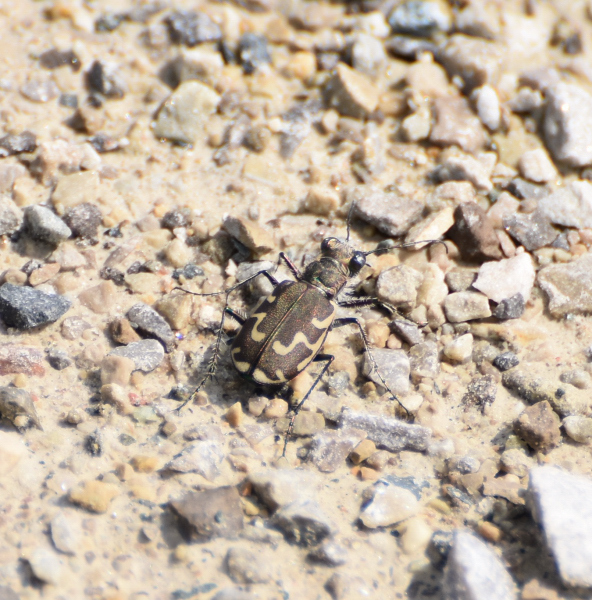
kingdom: Animalia
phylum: Arthropoda
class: Insecta
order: Coleoptera
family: Carabidae
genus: Cicindela
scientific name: Cicindela repanda
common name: Bronzed tiger beetle
